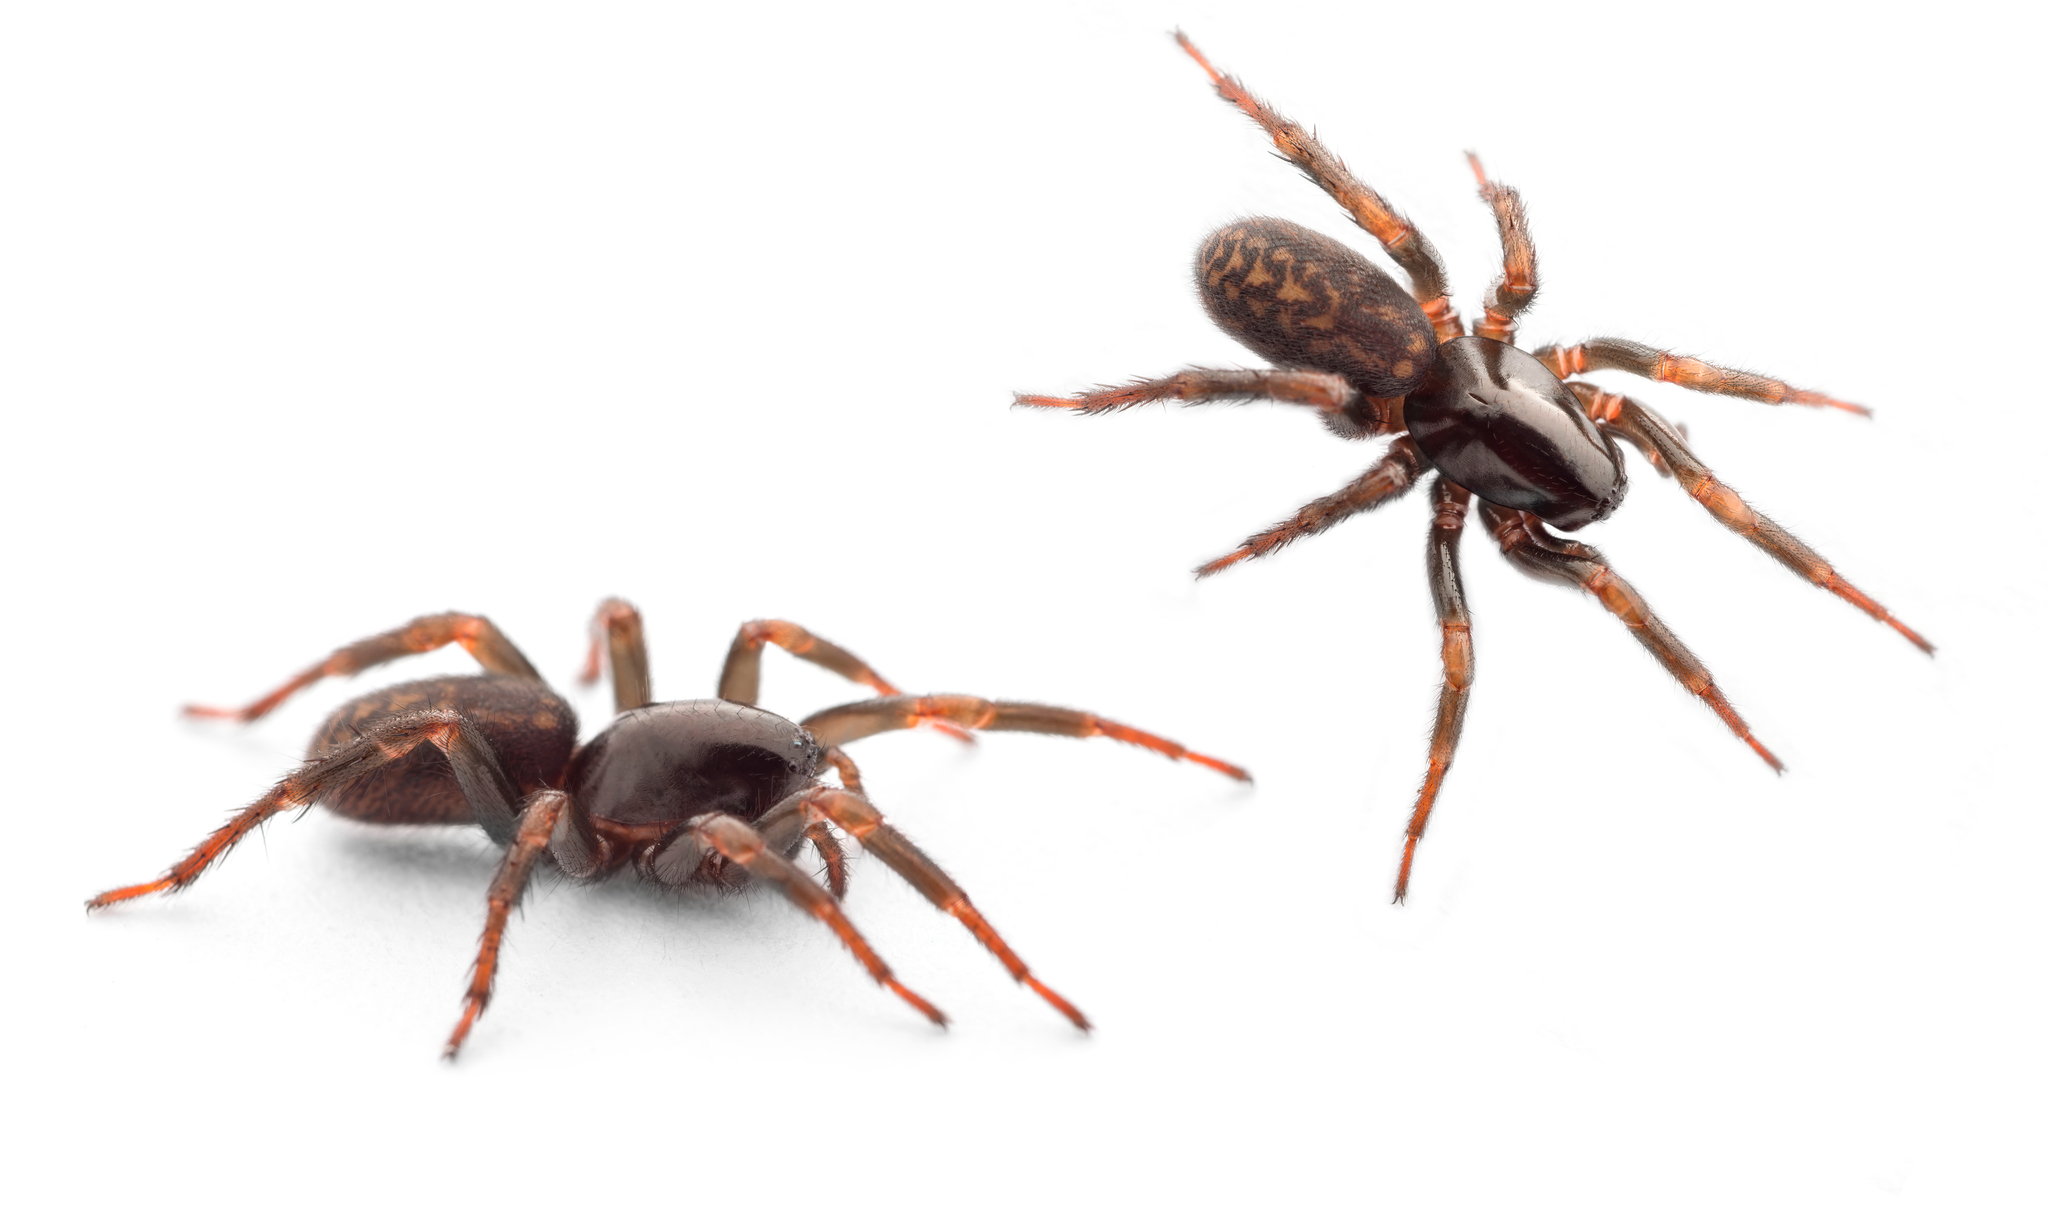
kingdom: Animalia
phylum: Arthropoda
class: Arachnida
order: Araneae
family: Zodariidae
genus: Selamia
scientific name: Selamia reticulata
